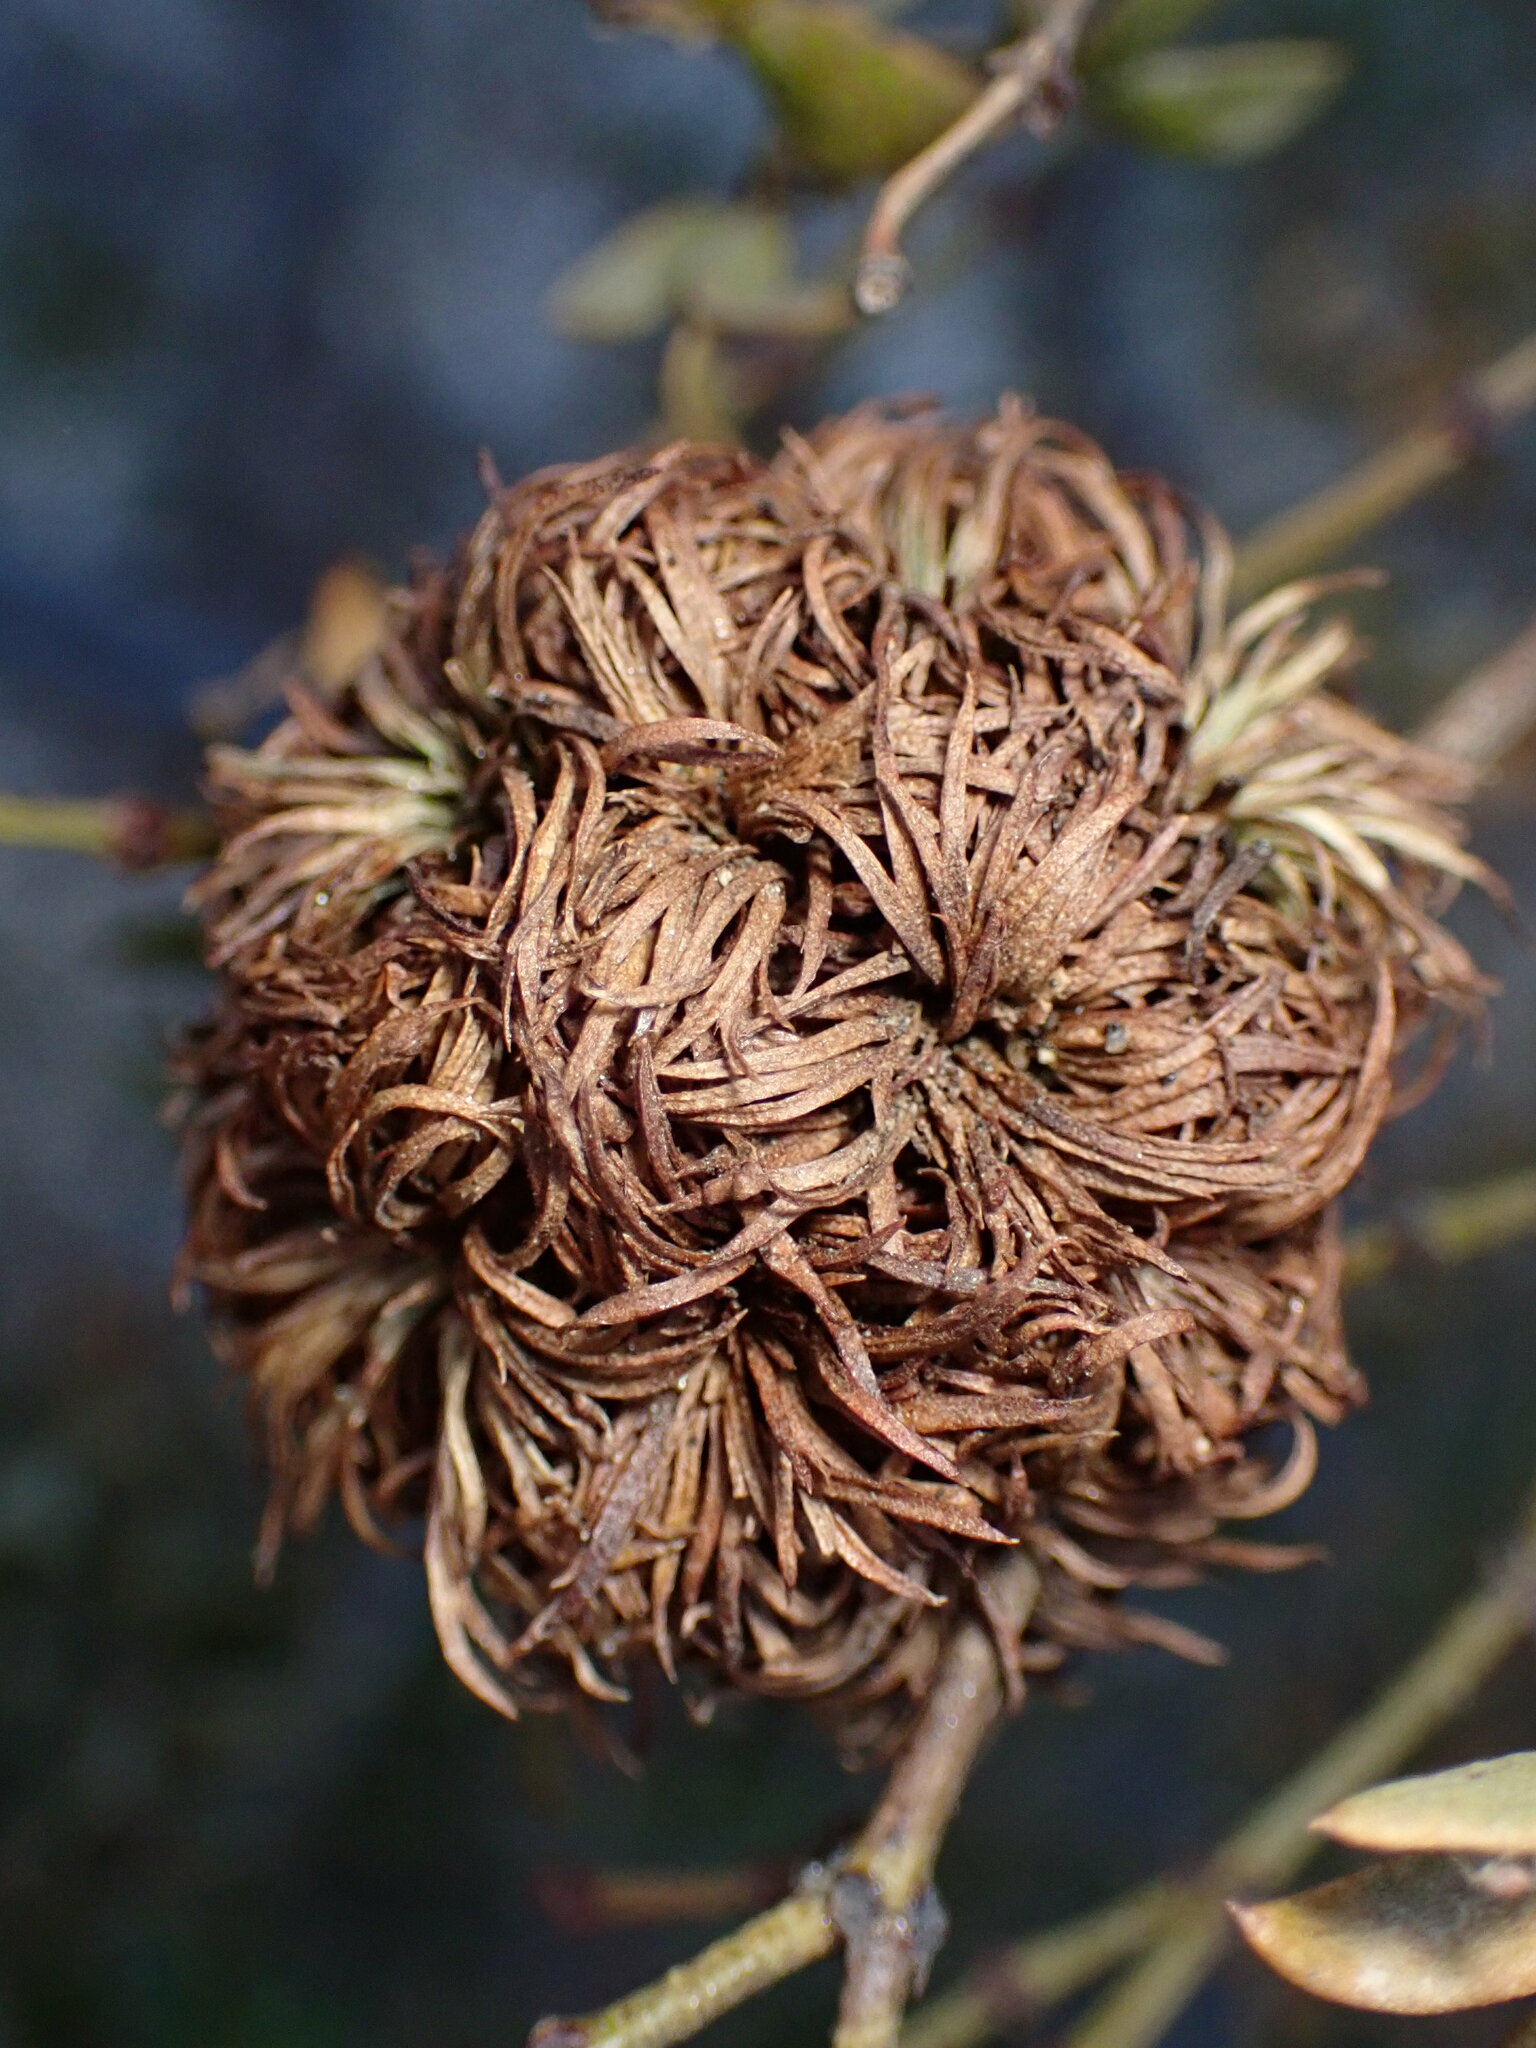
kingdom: Animalia
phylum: Arthropoda
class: Insecta
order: Diptera
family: Cecidomyiidae
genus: Asphondylia
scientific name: Asphondylia auripila
